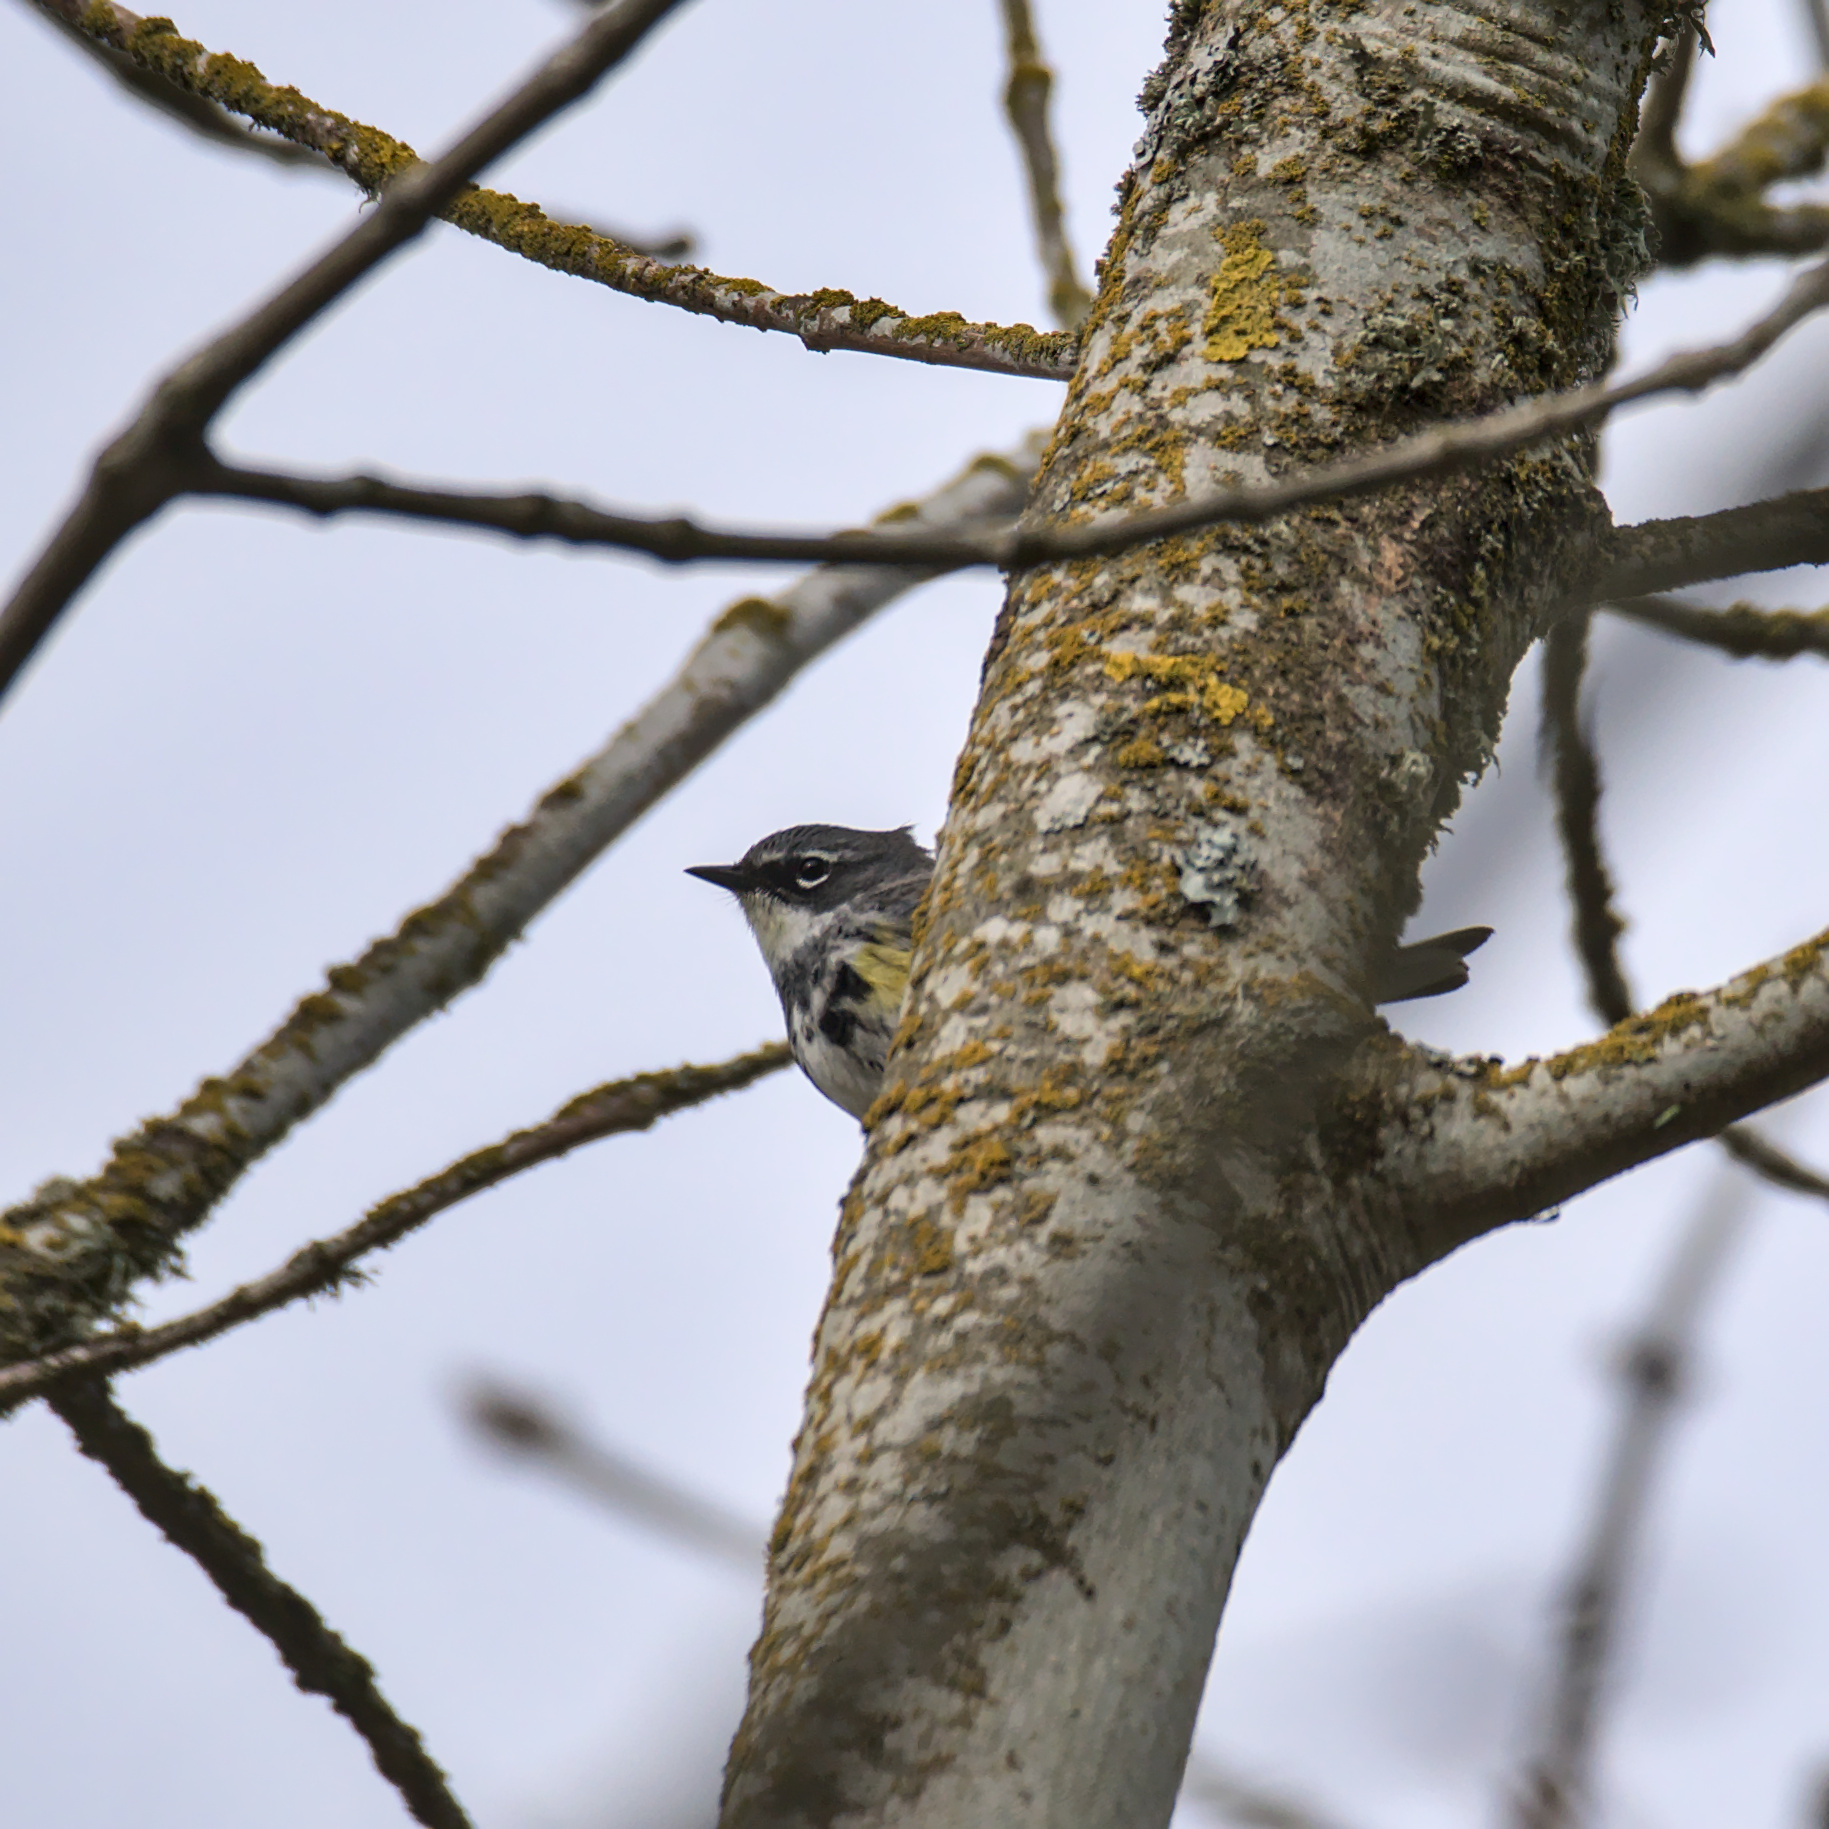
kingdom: Animalia
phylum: Chordata
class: Aves
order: Passeriformes
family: Parulidae
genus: Setophaga
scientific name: Setophaga coronata
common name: Myrtle warbler
